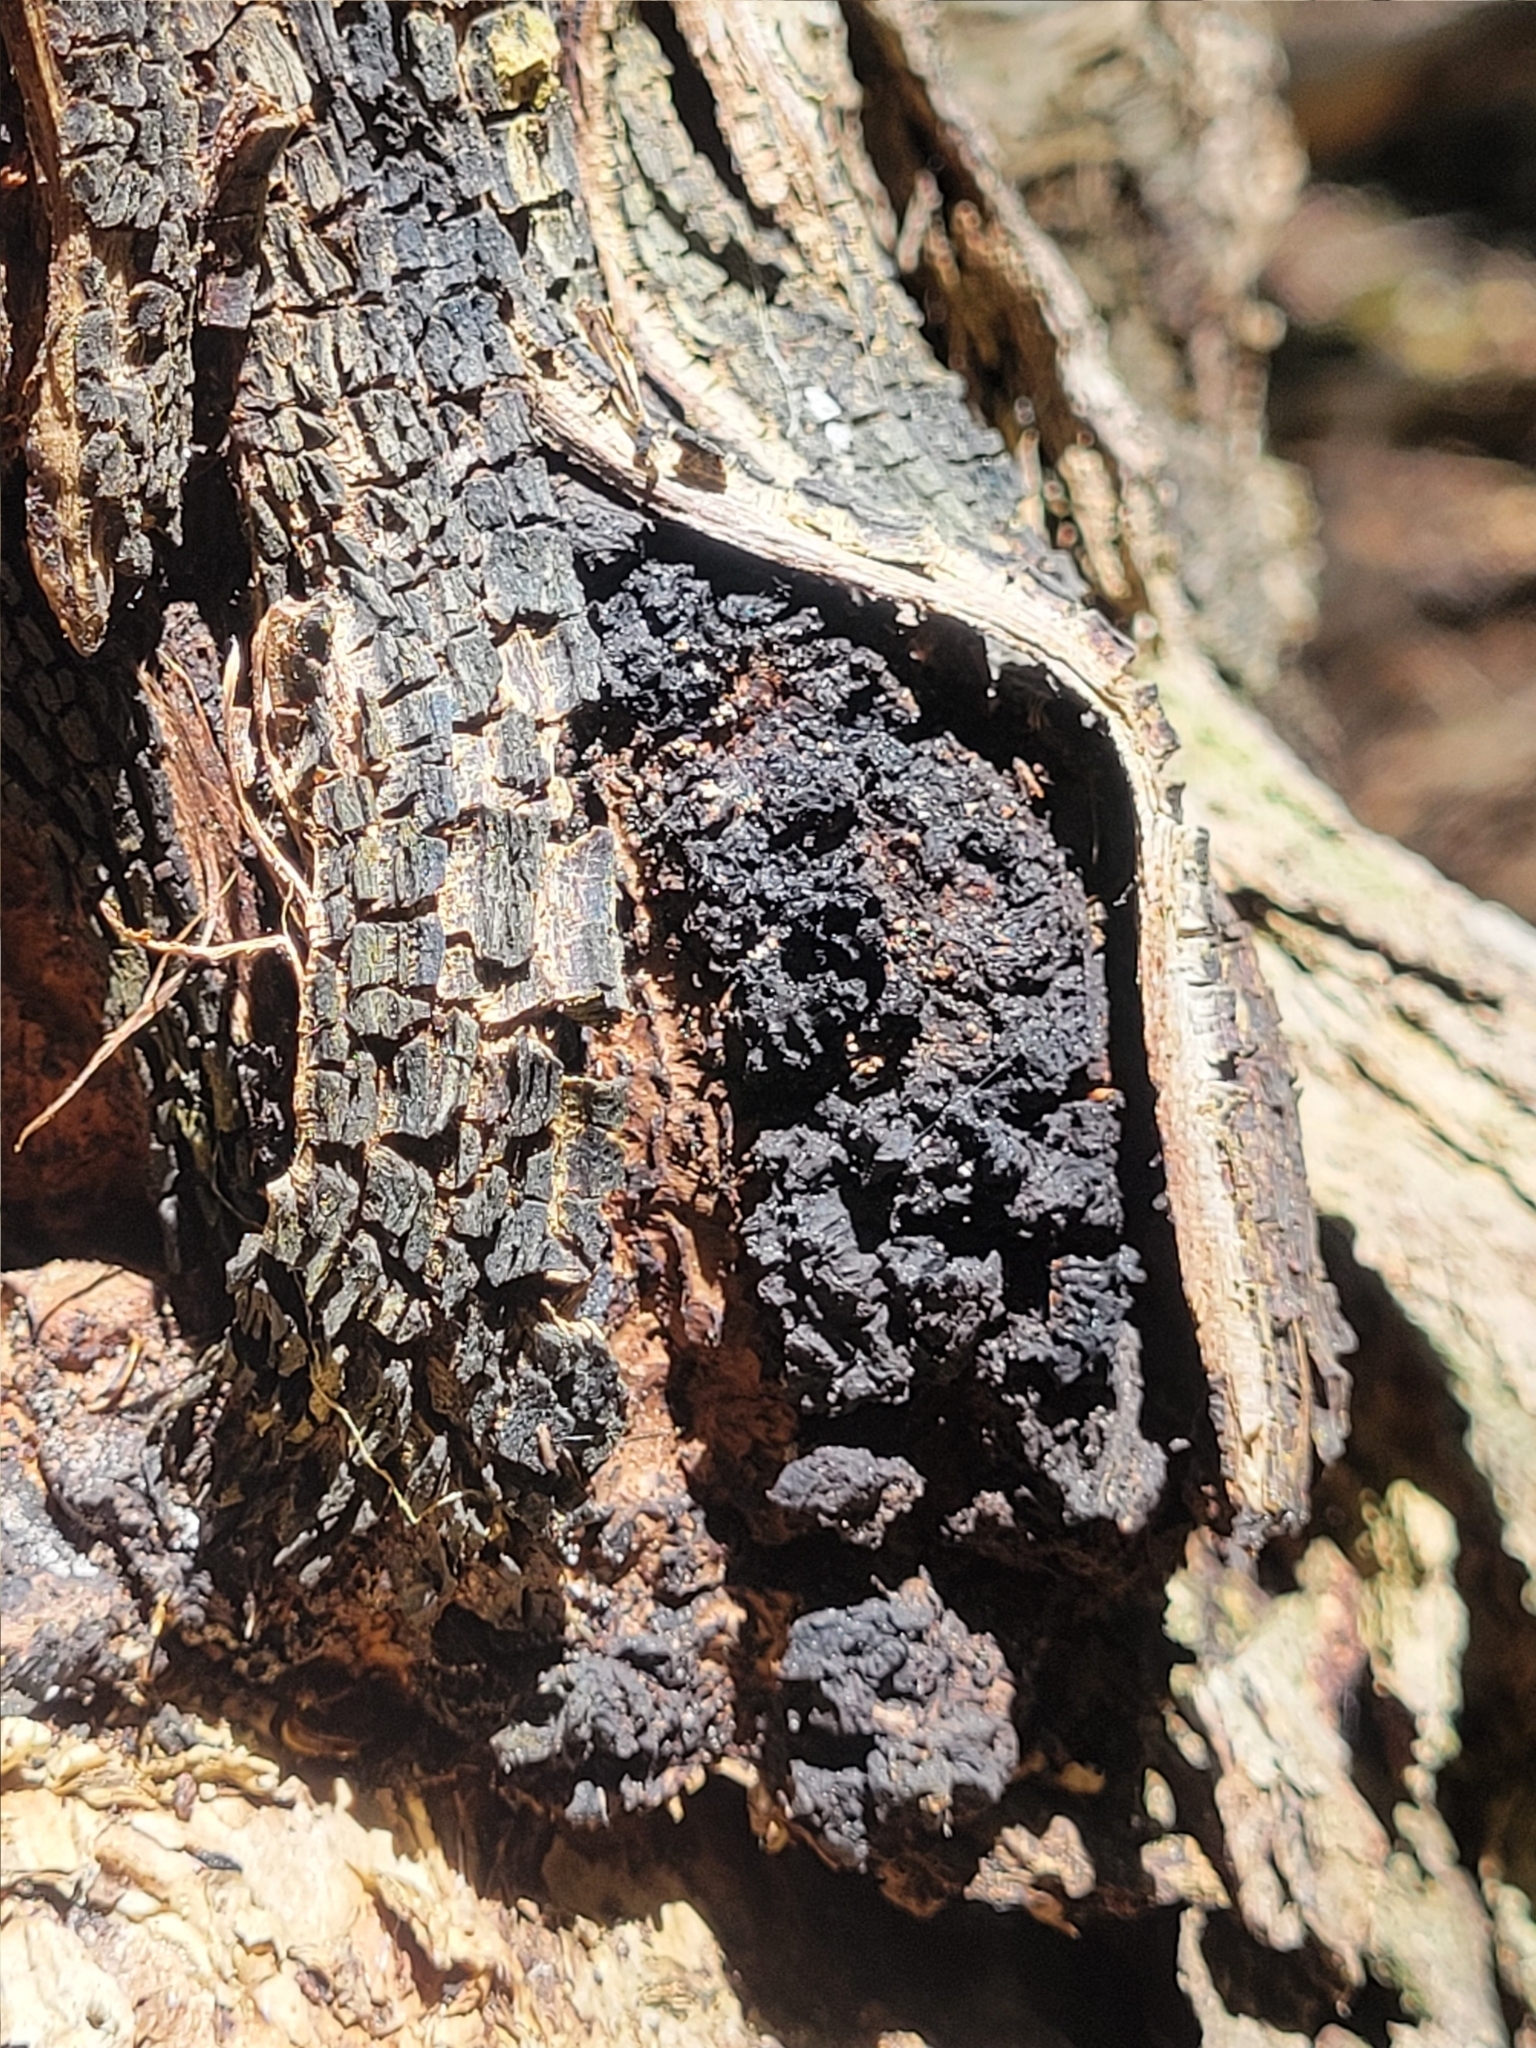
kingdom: Fungi
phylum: Basidiomycota
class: Agaricomycetes
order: Hymenochaetales
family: Hymenochaetaceae
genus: Inonotus
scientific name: Inonotus obliquus
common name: Chaga
